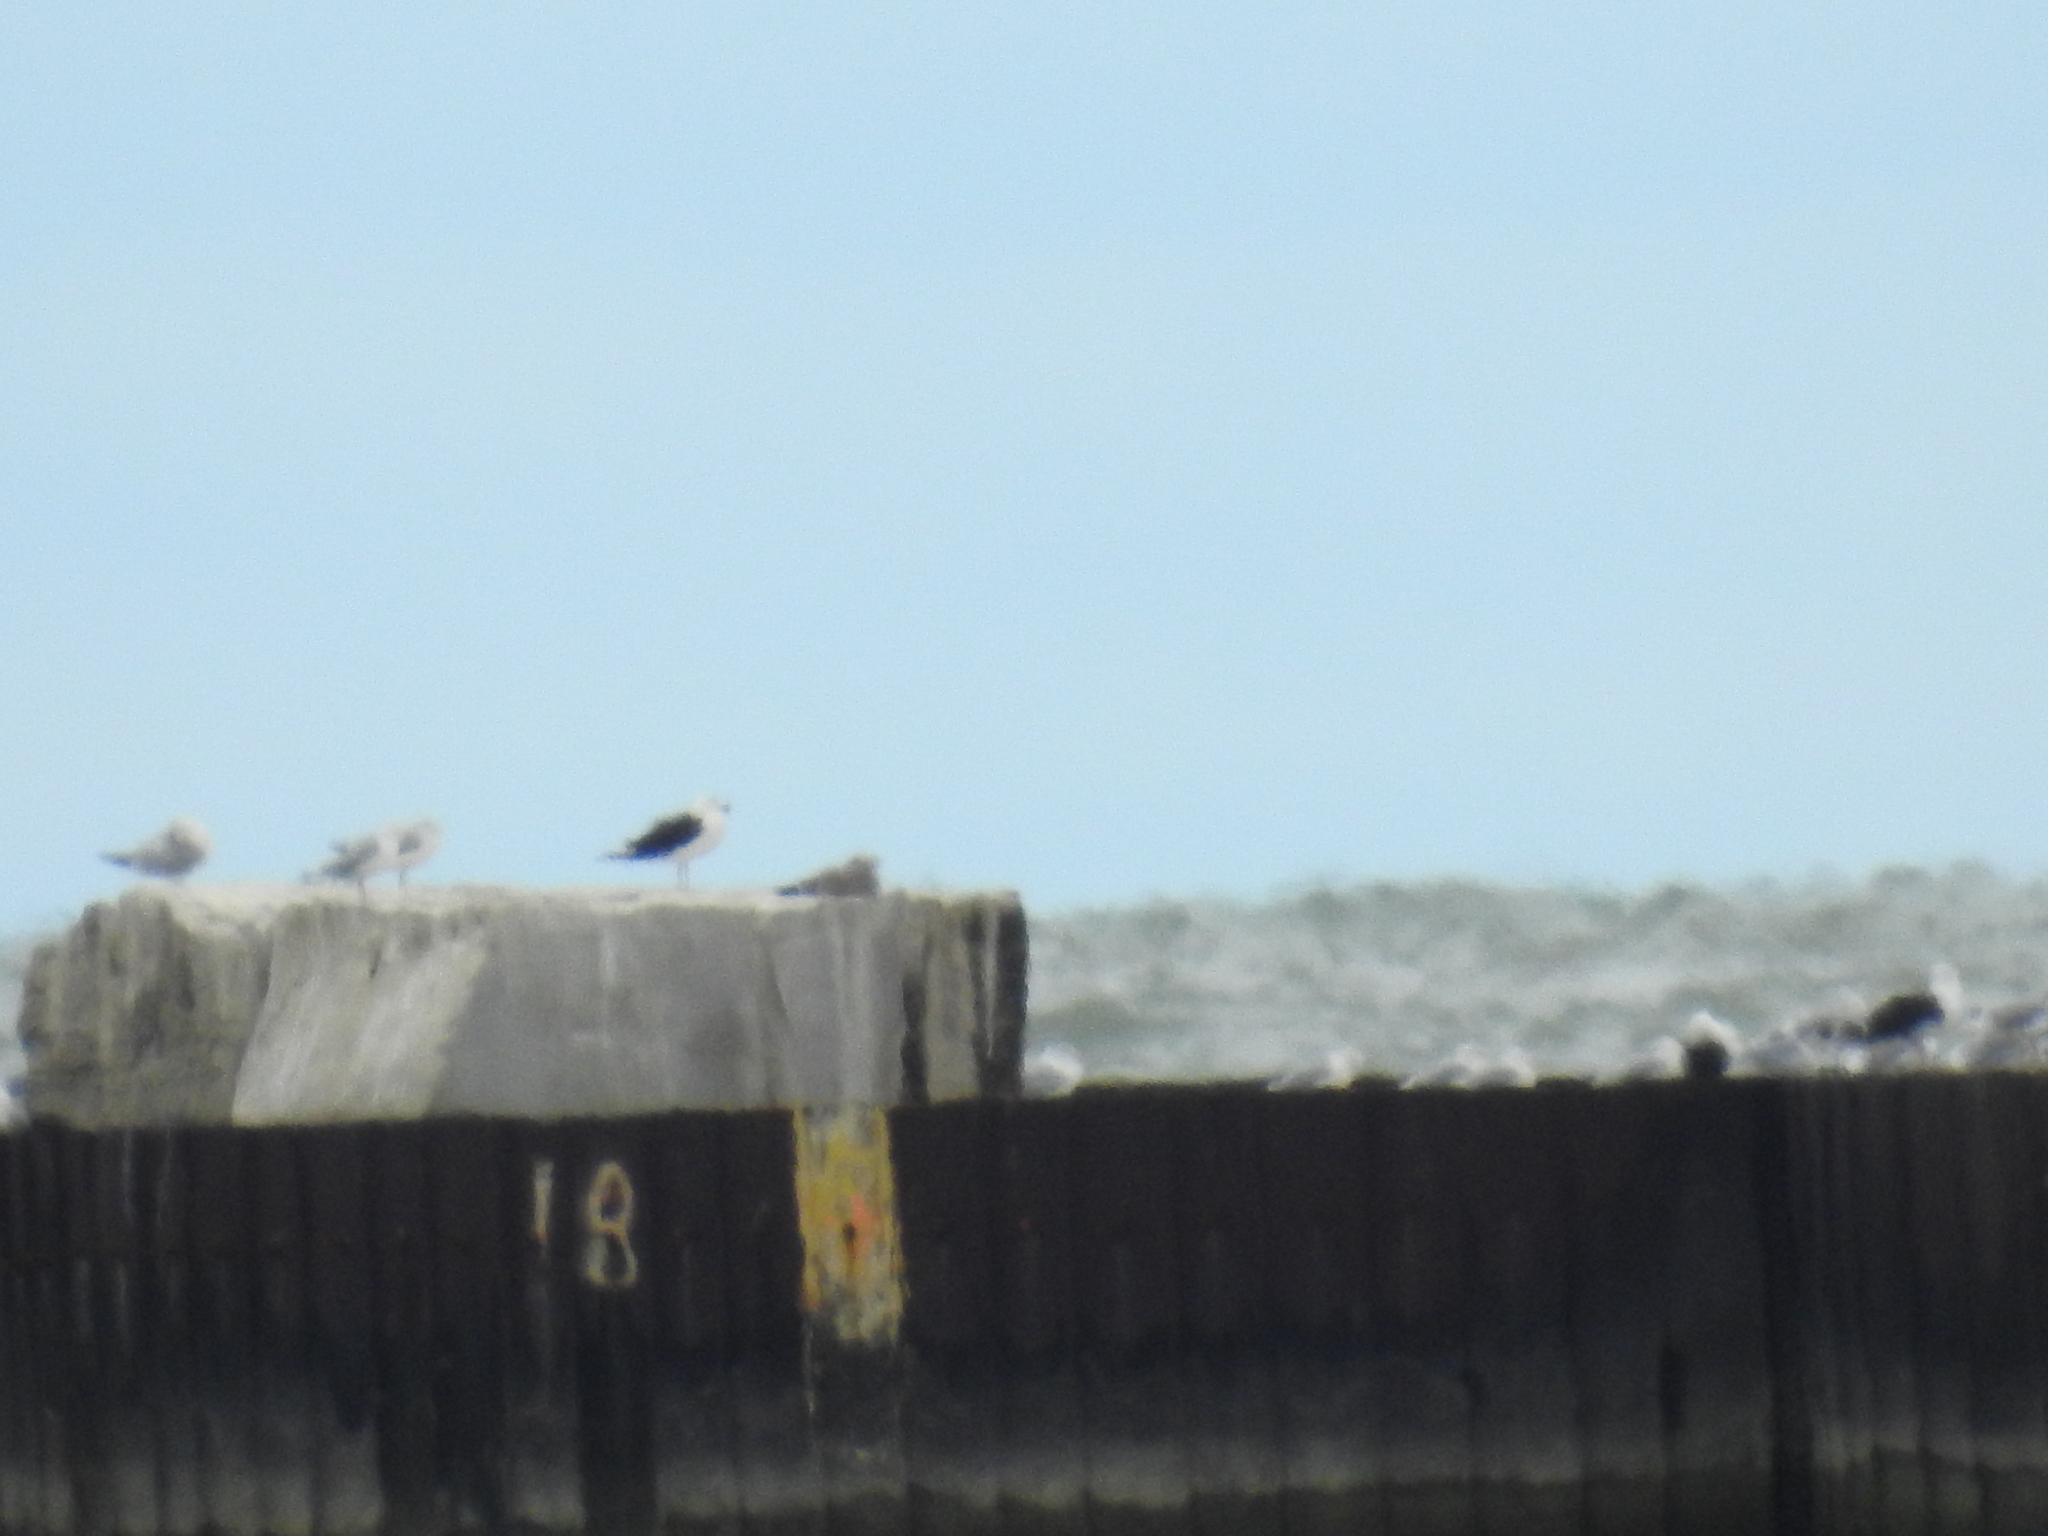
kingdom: Animalia
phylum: Chordata
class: Aves
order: Charadriiformes
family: Laridae
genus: Larus
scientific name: Larus marinus
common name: Great black-backed gull
